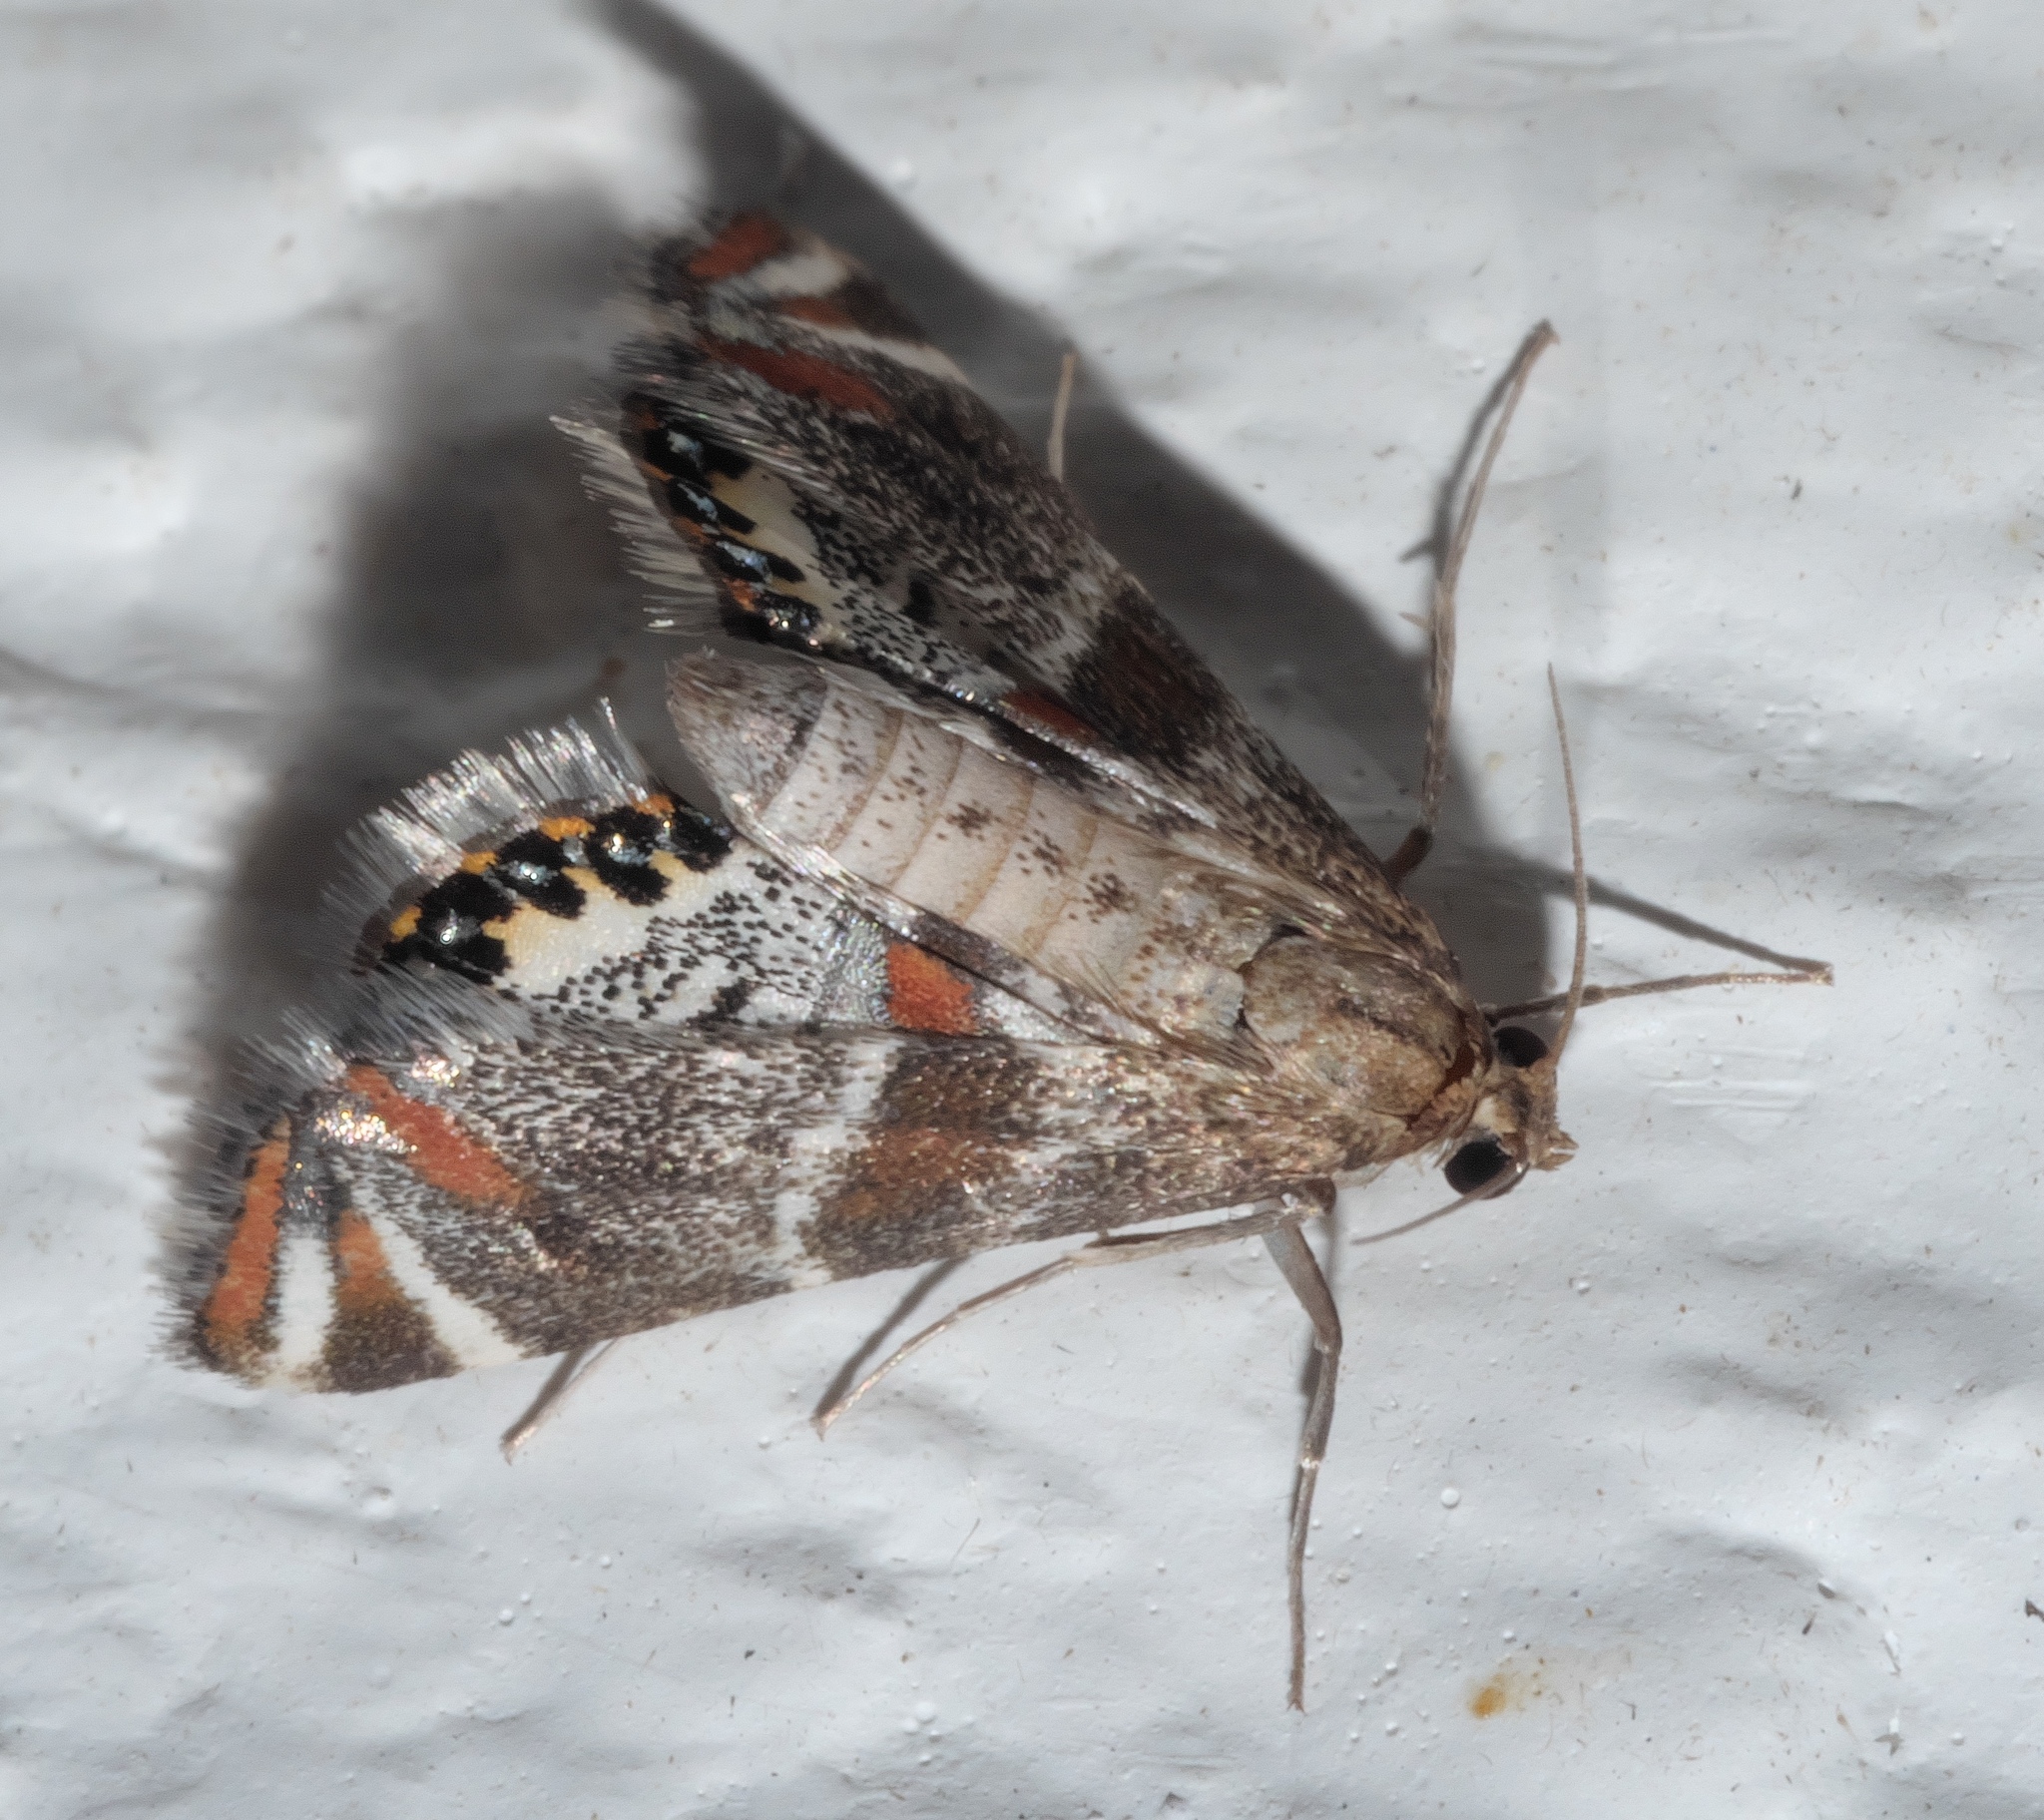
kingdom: Animalia
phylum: Arthropoda
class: Insecta
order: Lepidoptera
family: Crambidae
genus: Petrophila
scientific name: Petrophila jaliscalis
